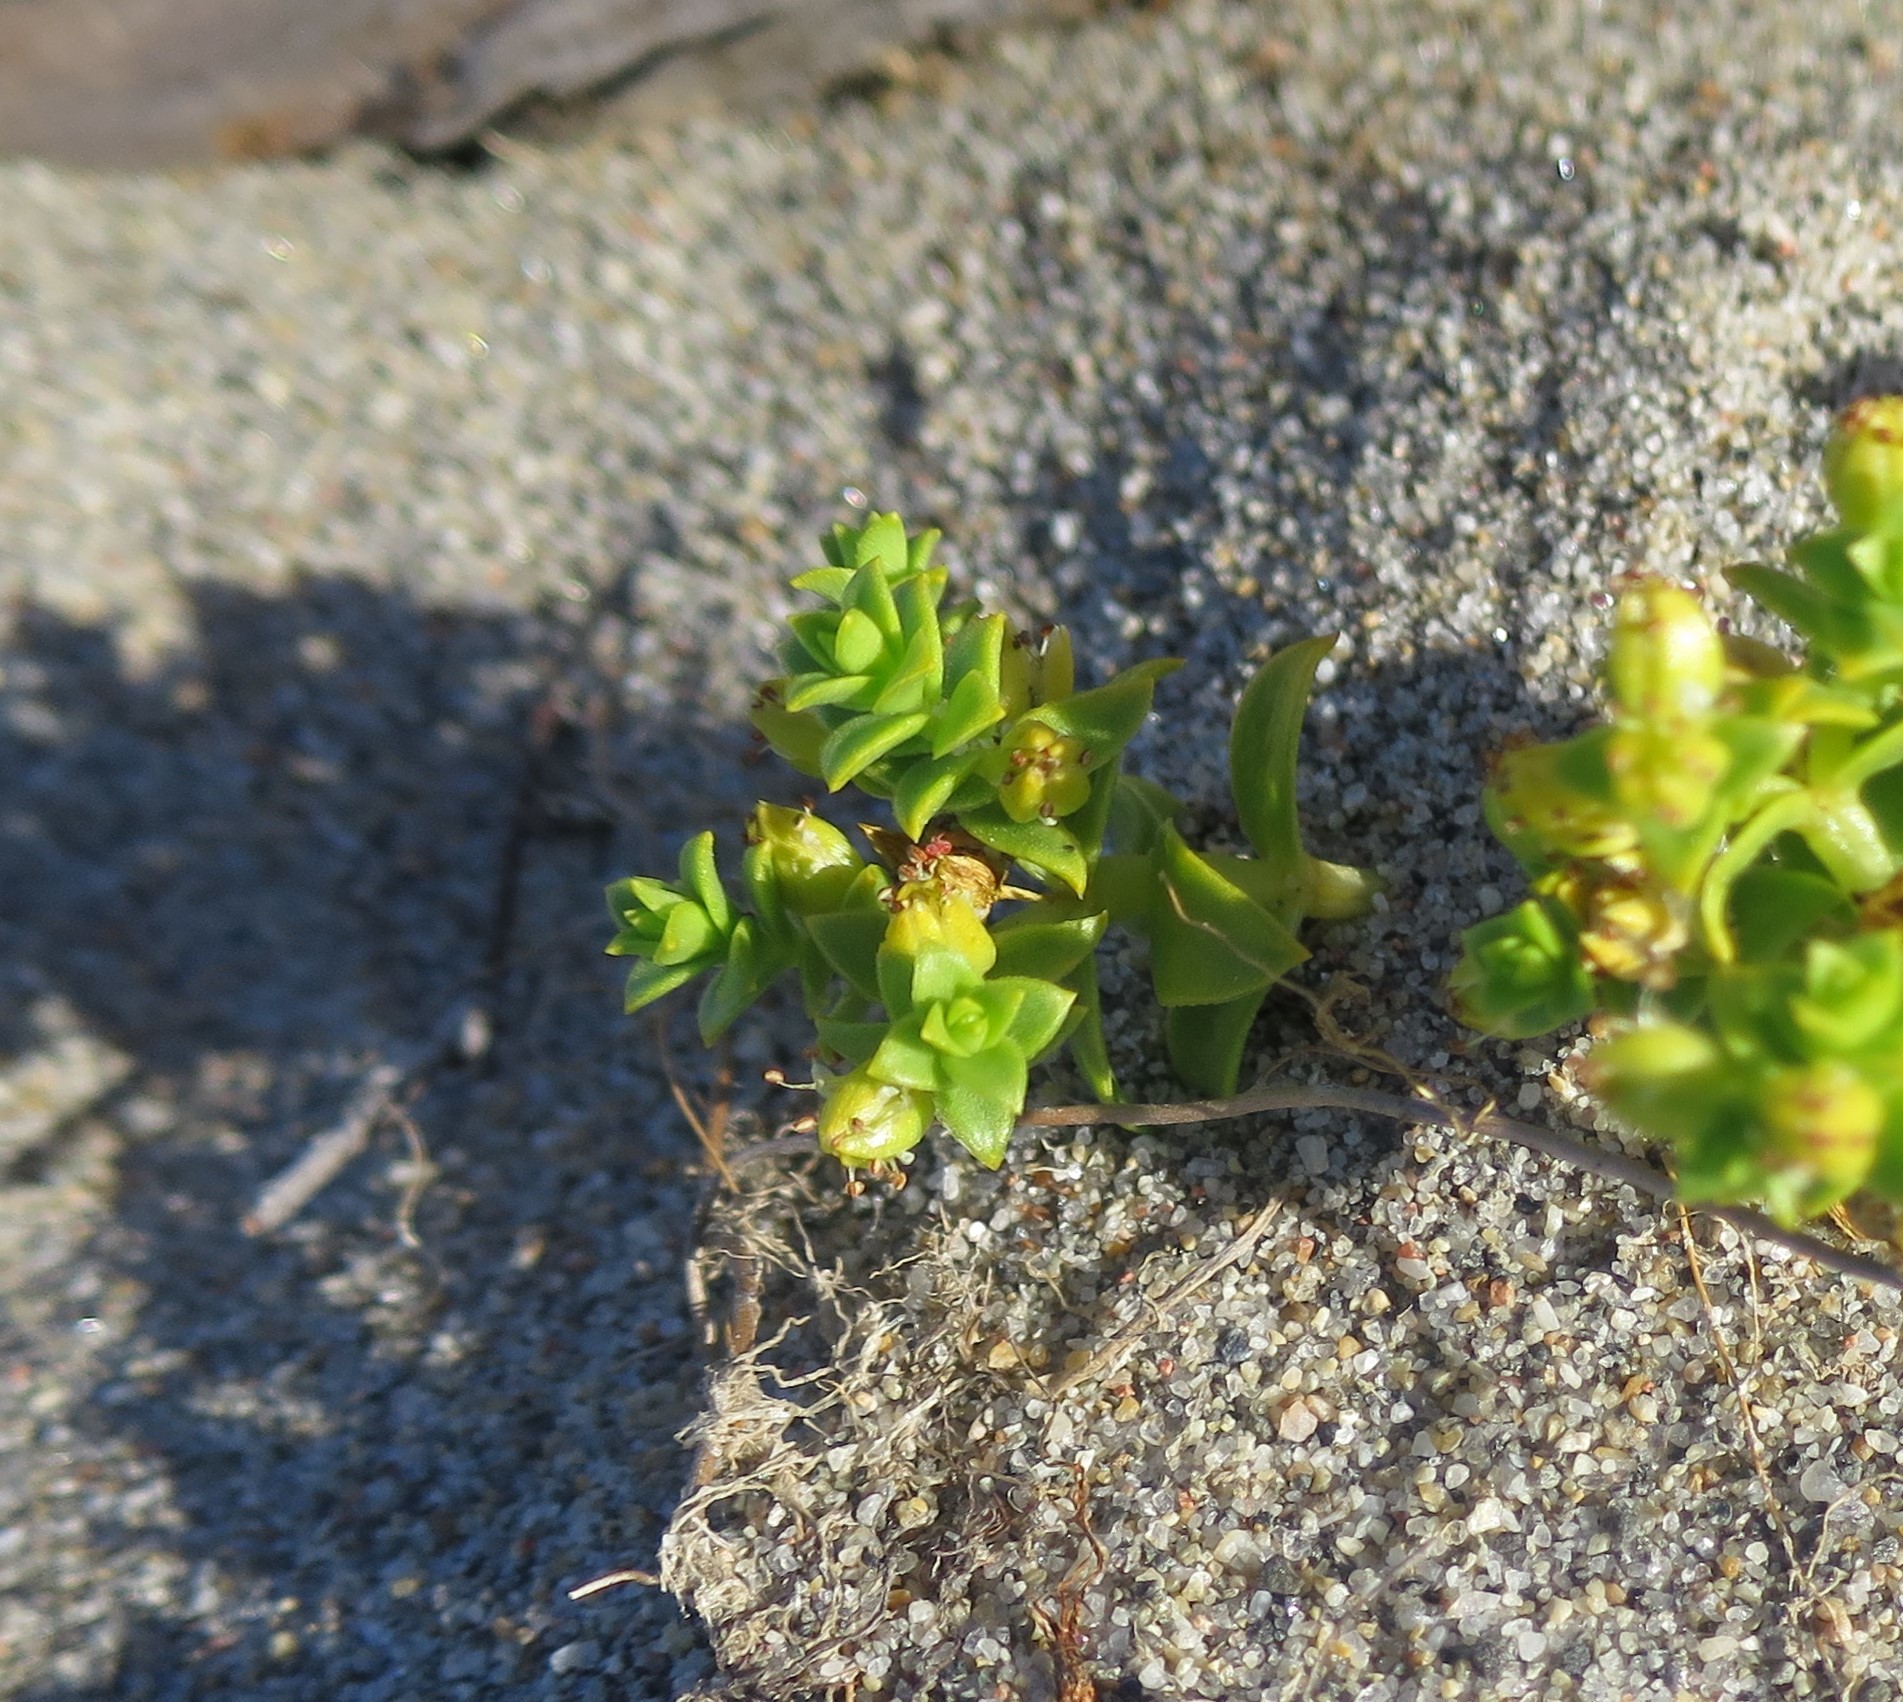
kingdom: Plantae
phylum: Tracheophyta
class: Magnoliopsida
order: Caryophyllales
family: Caryophyllaceae
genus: Honckenya
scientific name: Honckenya peploides
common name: Sea sandwort
